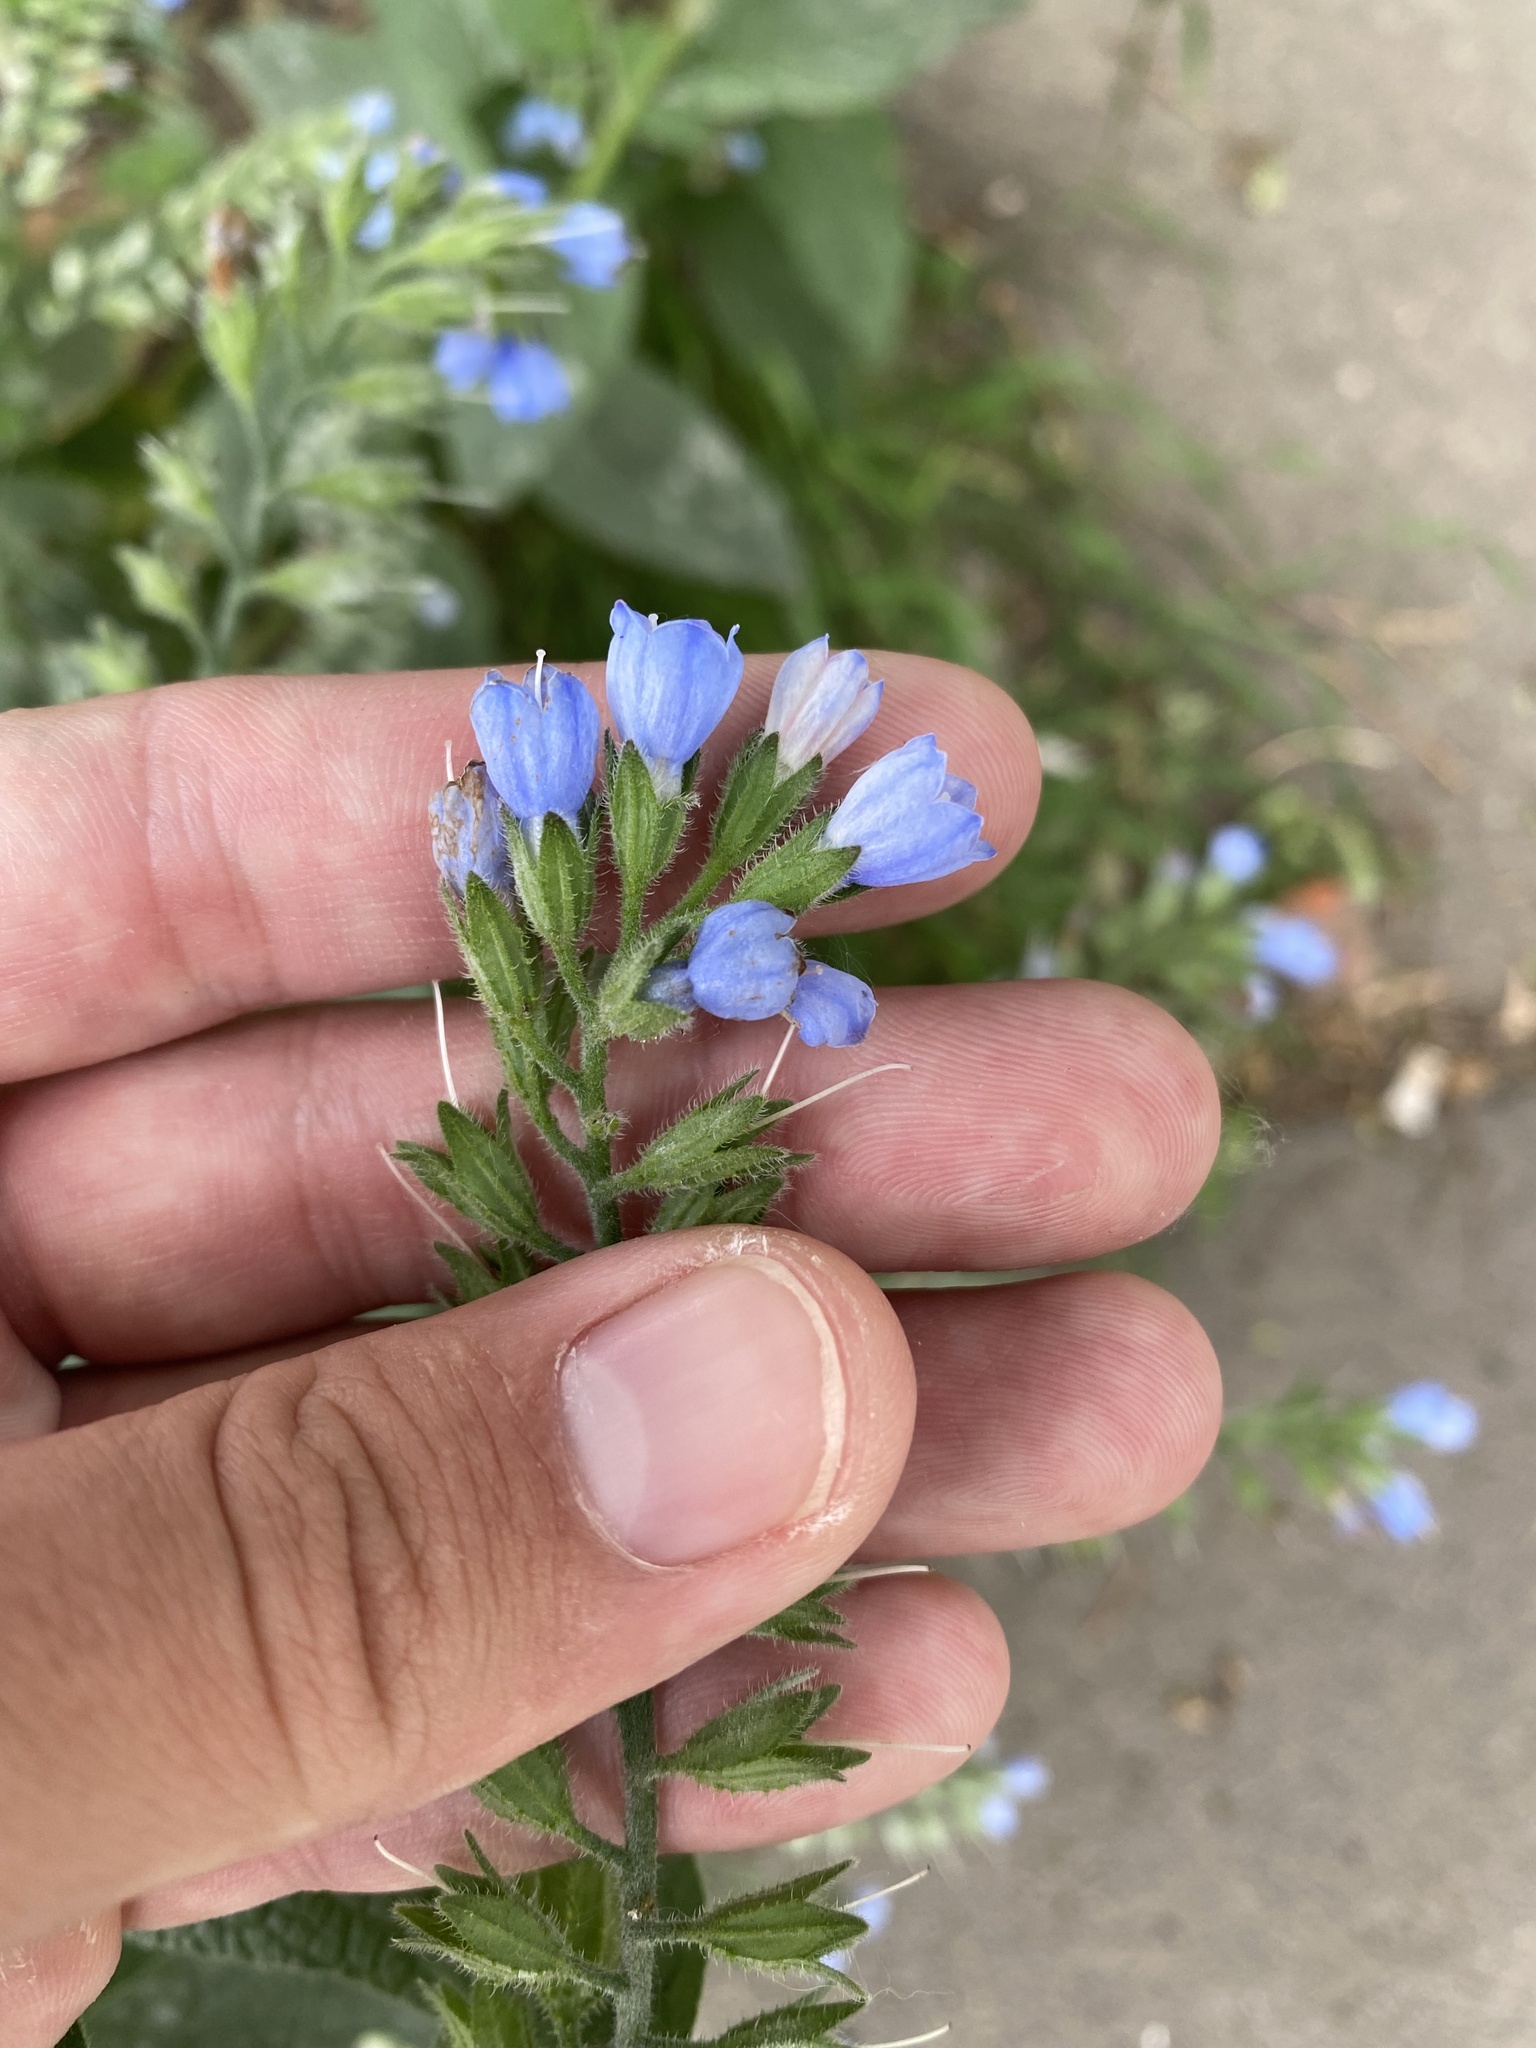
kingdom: Plantae
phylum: Tracheophyta
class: Magnoliopsida
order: Boraginales
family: Boraginaceae
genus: Symphytum
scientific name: Symphytum caucasicum
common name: Caucasian comfrey
